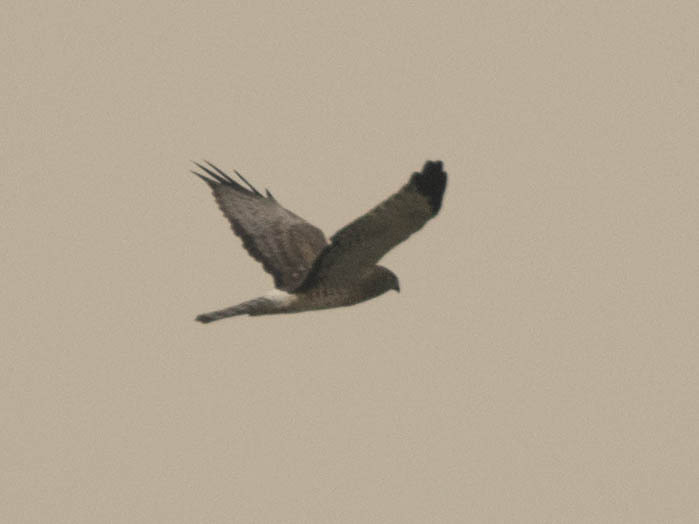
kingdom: Animalia
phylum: Chordata
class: Aves
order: Accipitriformes
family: Accipitridae
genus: Circus
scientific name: Circus cyaneus
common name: Hen harrier
